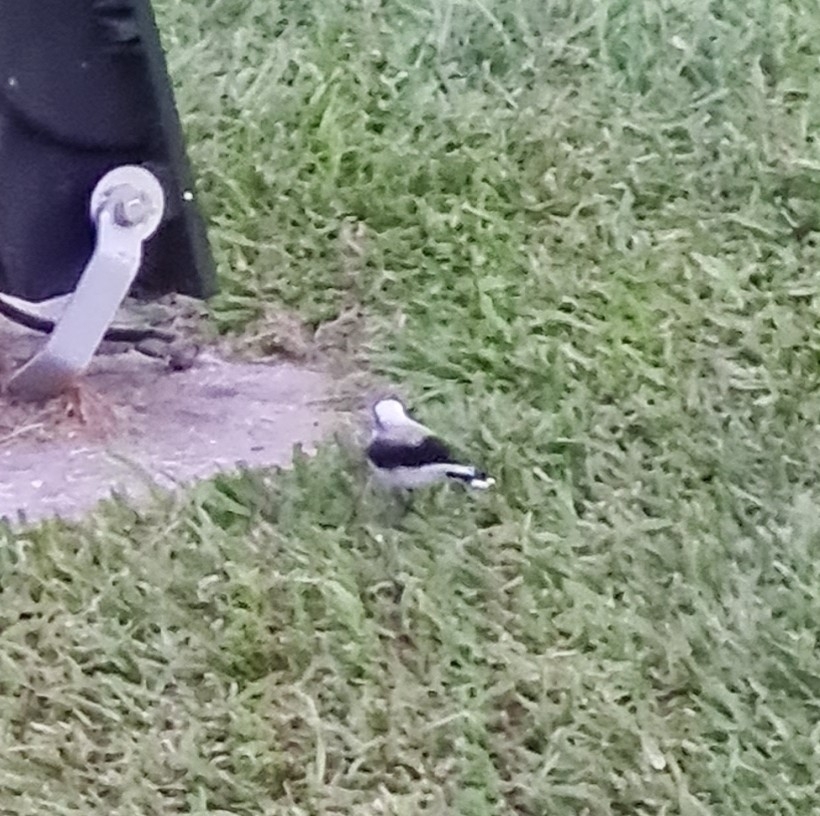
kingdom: Animalia
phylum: Chordata
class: Aves
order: Passeriformes
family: Tyrannidae
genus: Fluvicola
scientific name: Fluvicola nengeta
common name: Masked water tyrant
